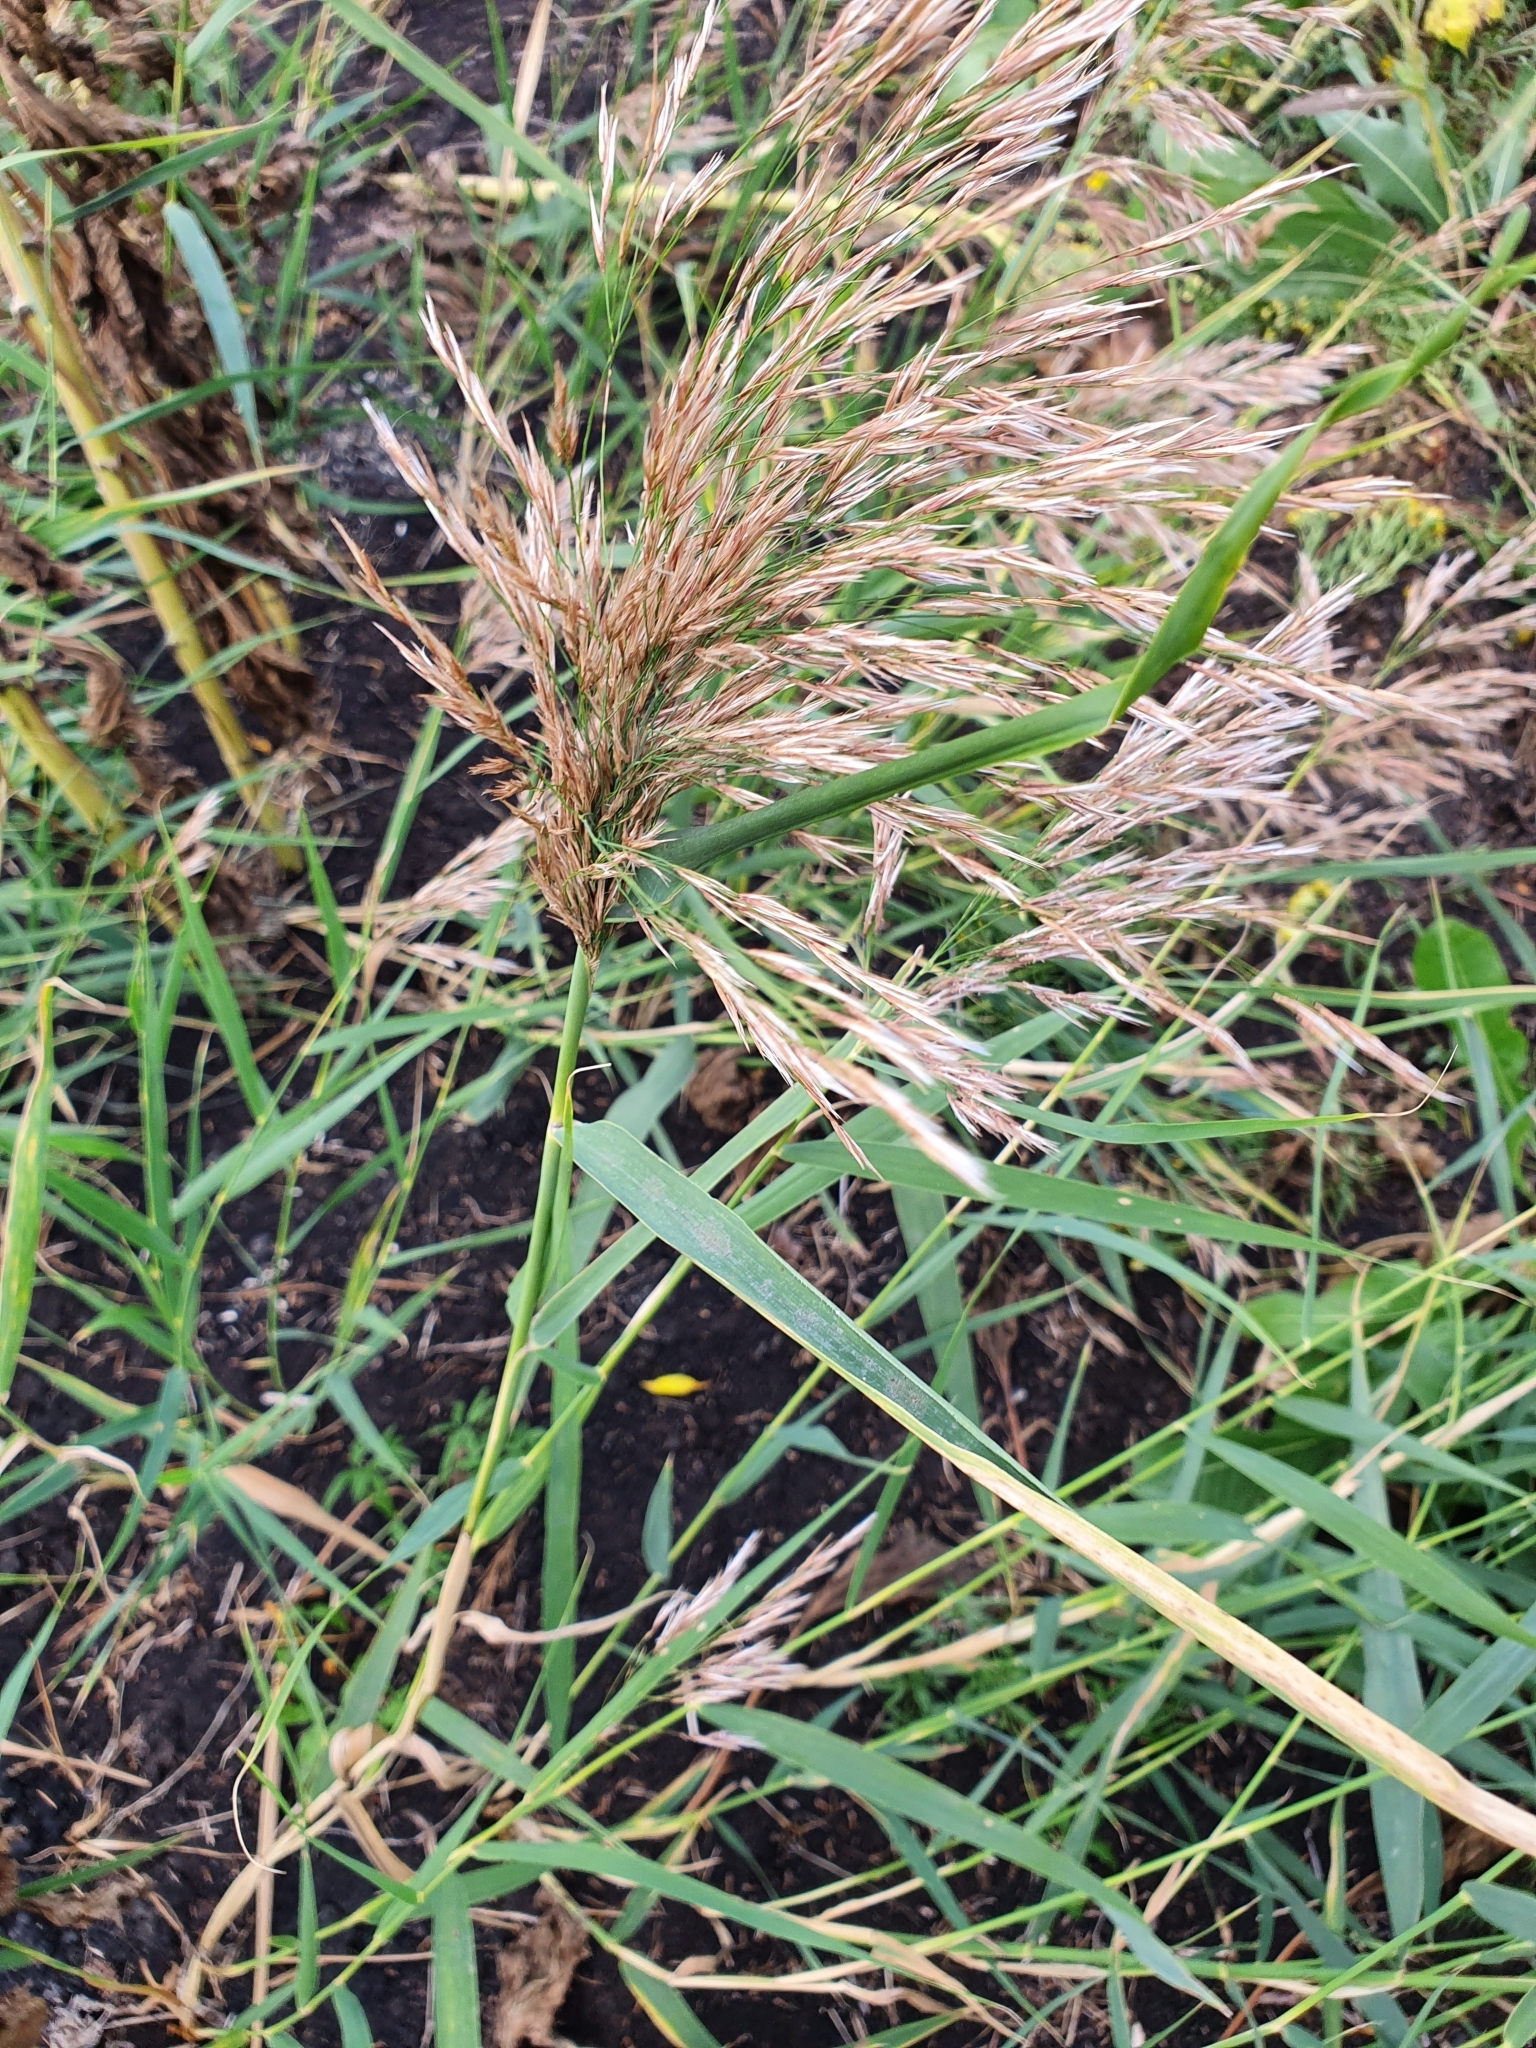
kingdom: Plantae
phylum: Tracheophyta
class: Liliopsida
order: Poales
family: Poaceae
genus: Phragmites
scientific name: Phragmites australis
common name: Common reed
